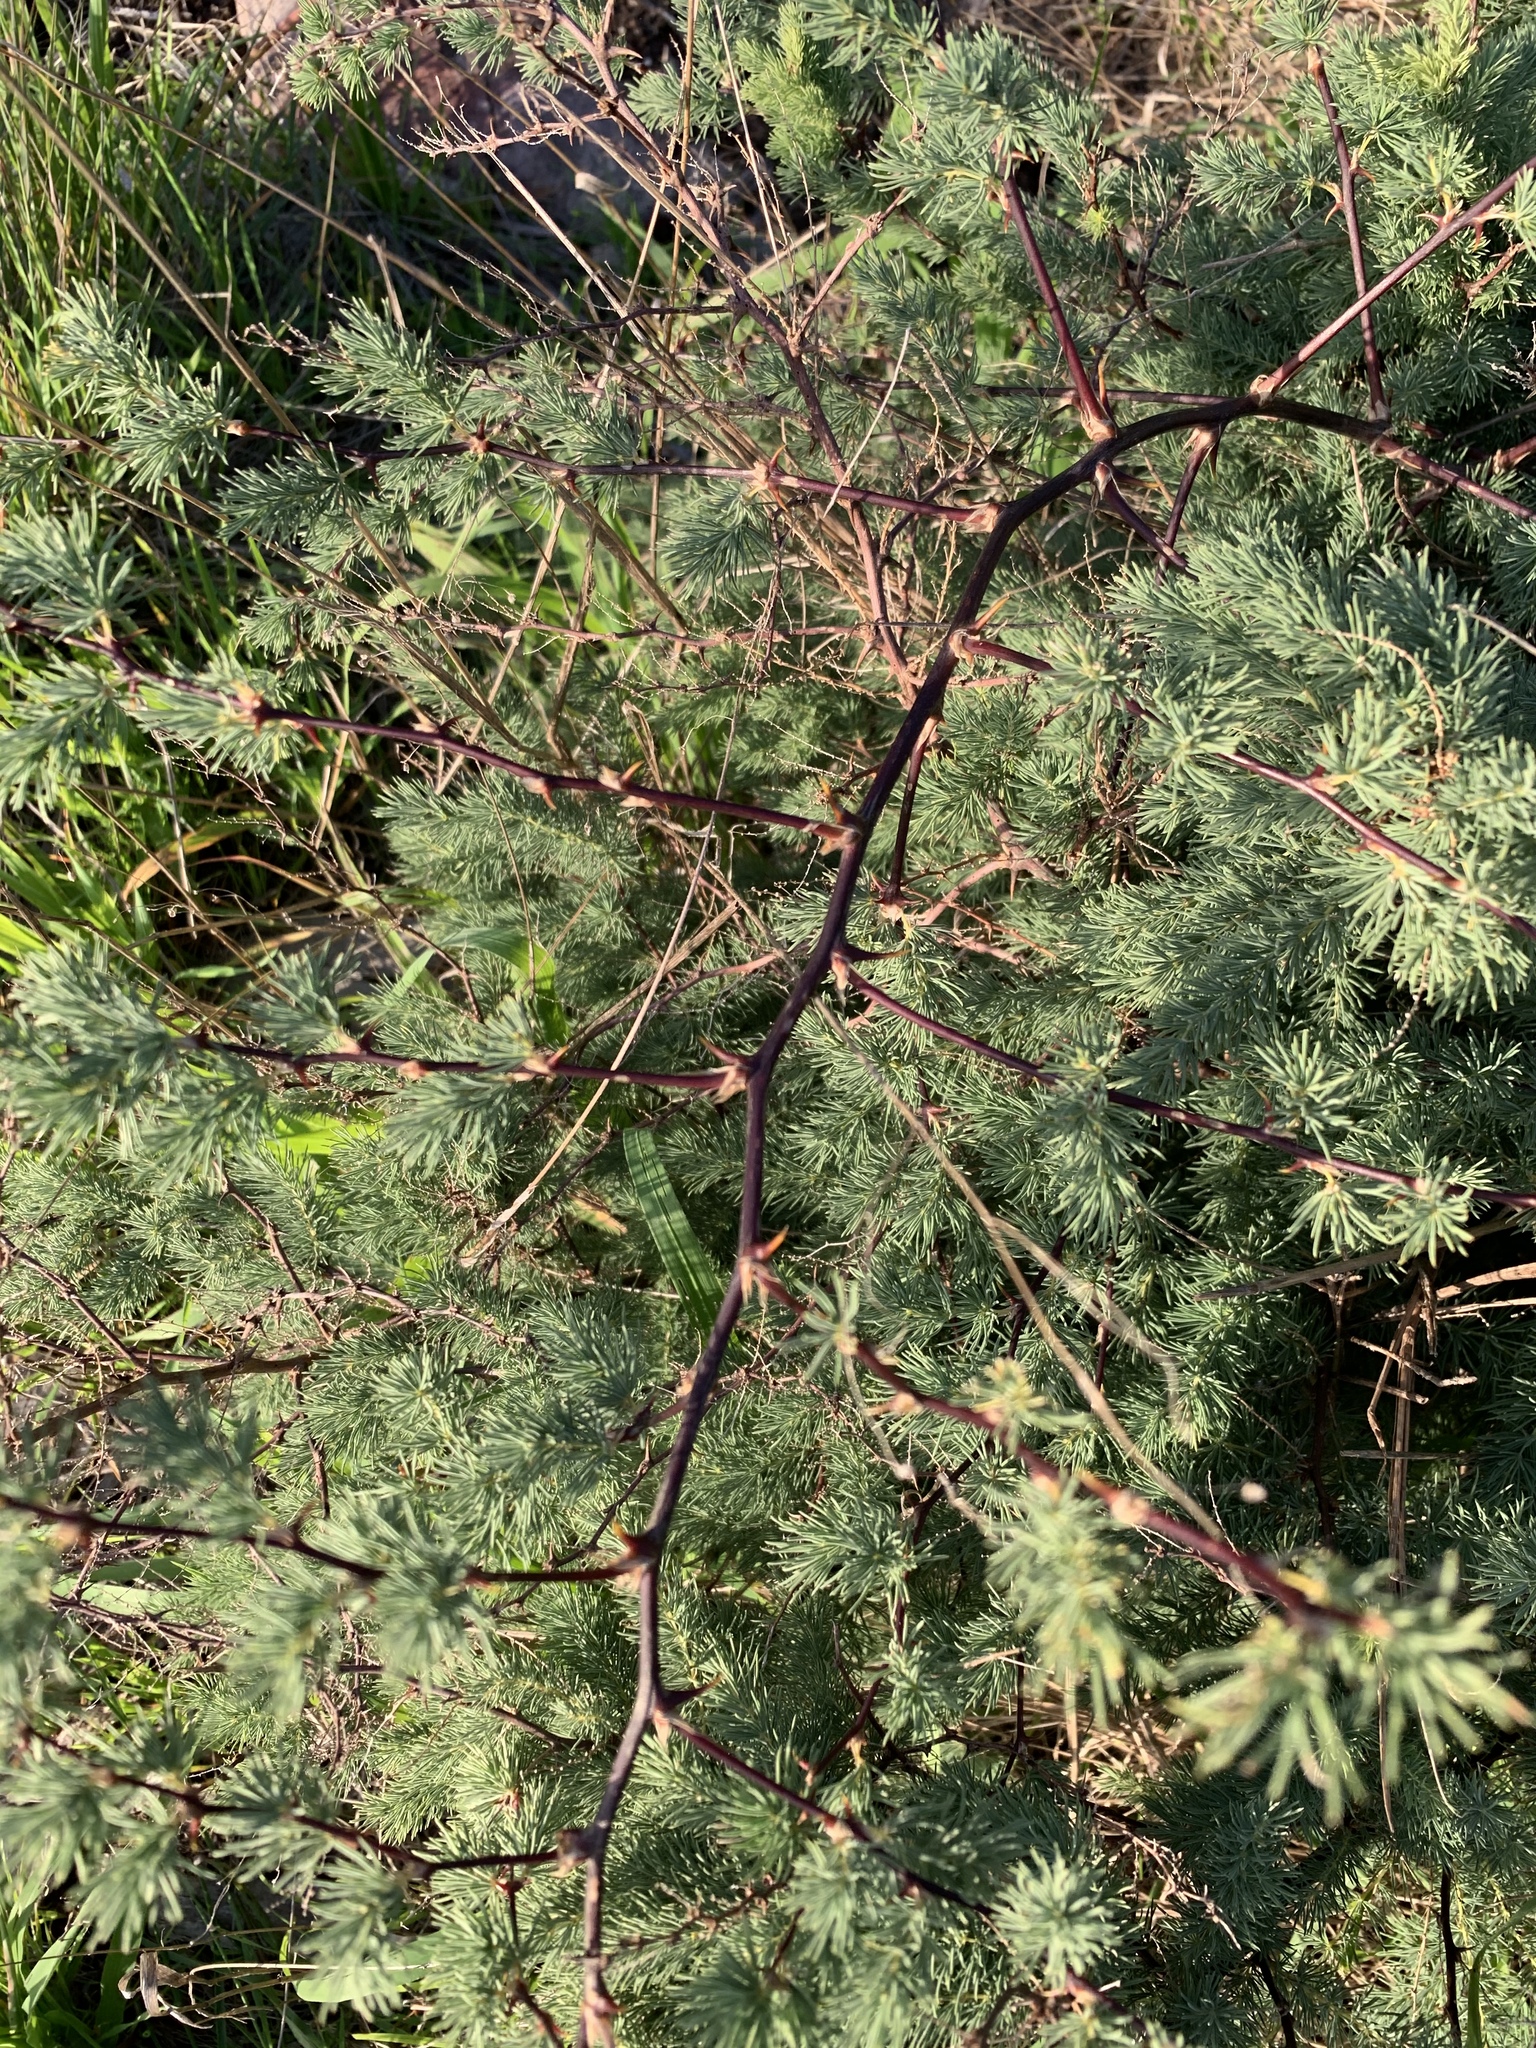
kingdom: Plantae
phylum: Tracheophyta
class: Liliopsida
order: Asparagales
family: Asparagaceae
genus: Asparagus
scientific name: Asparagus rubicundus
